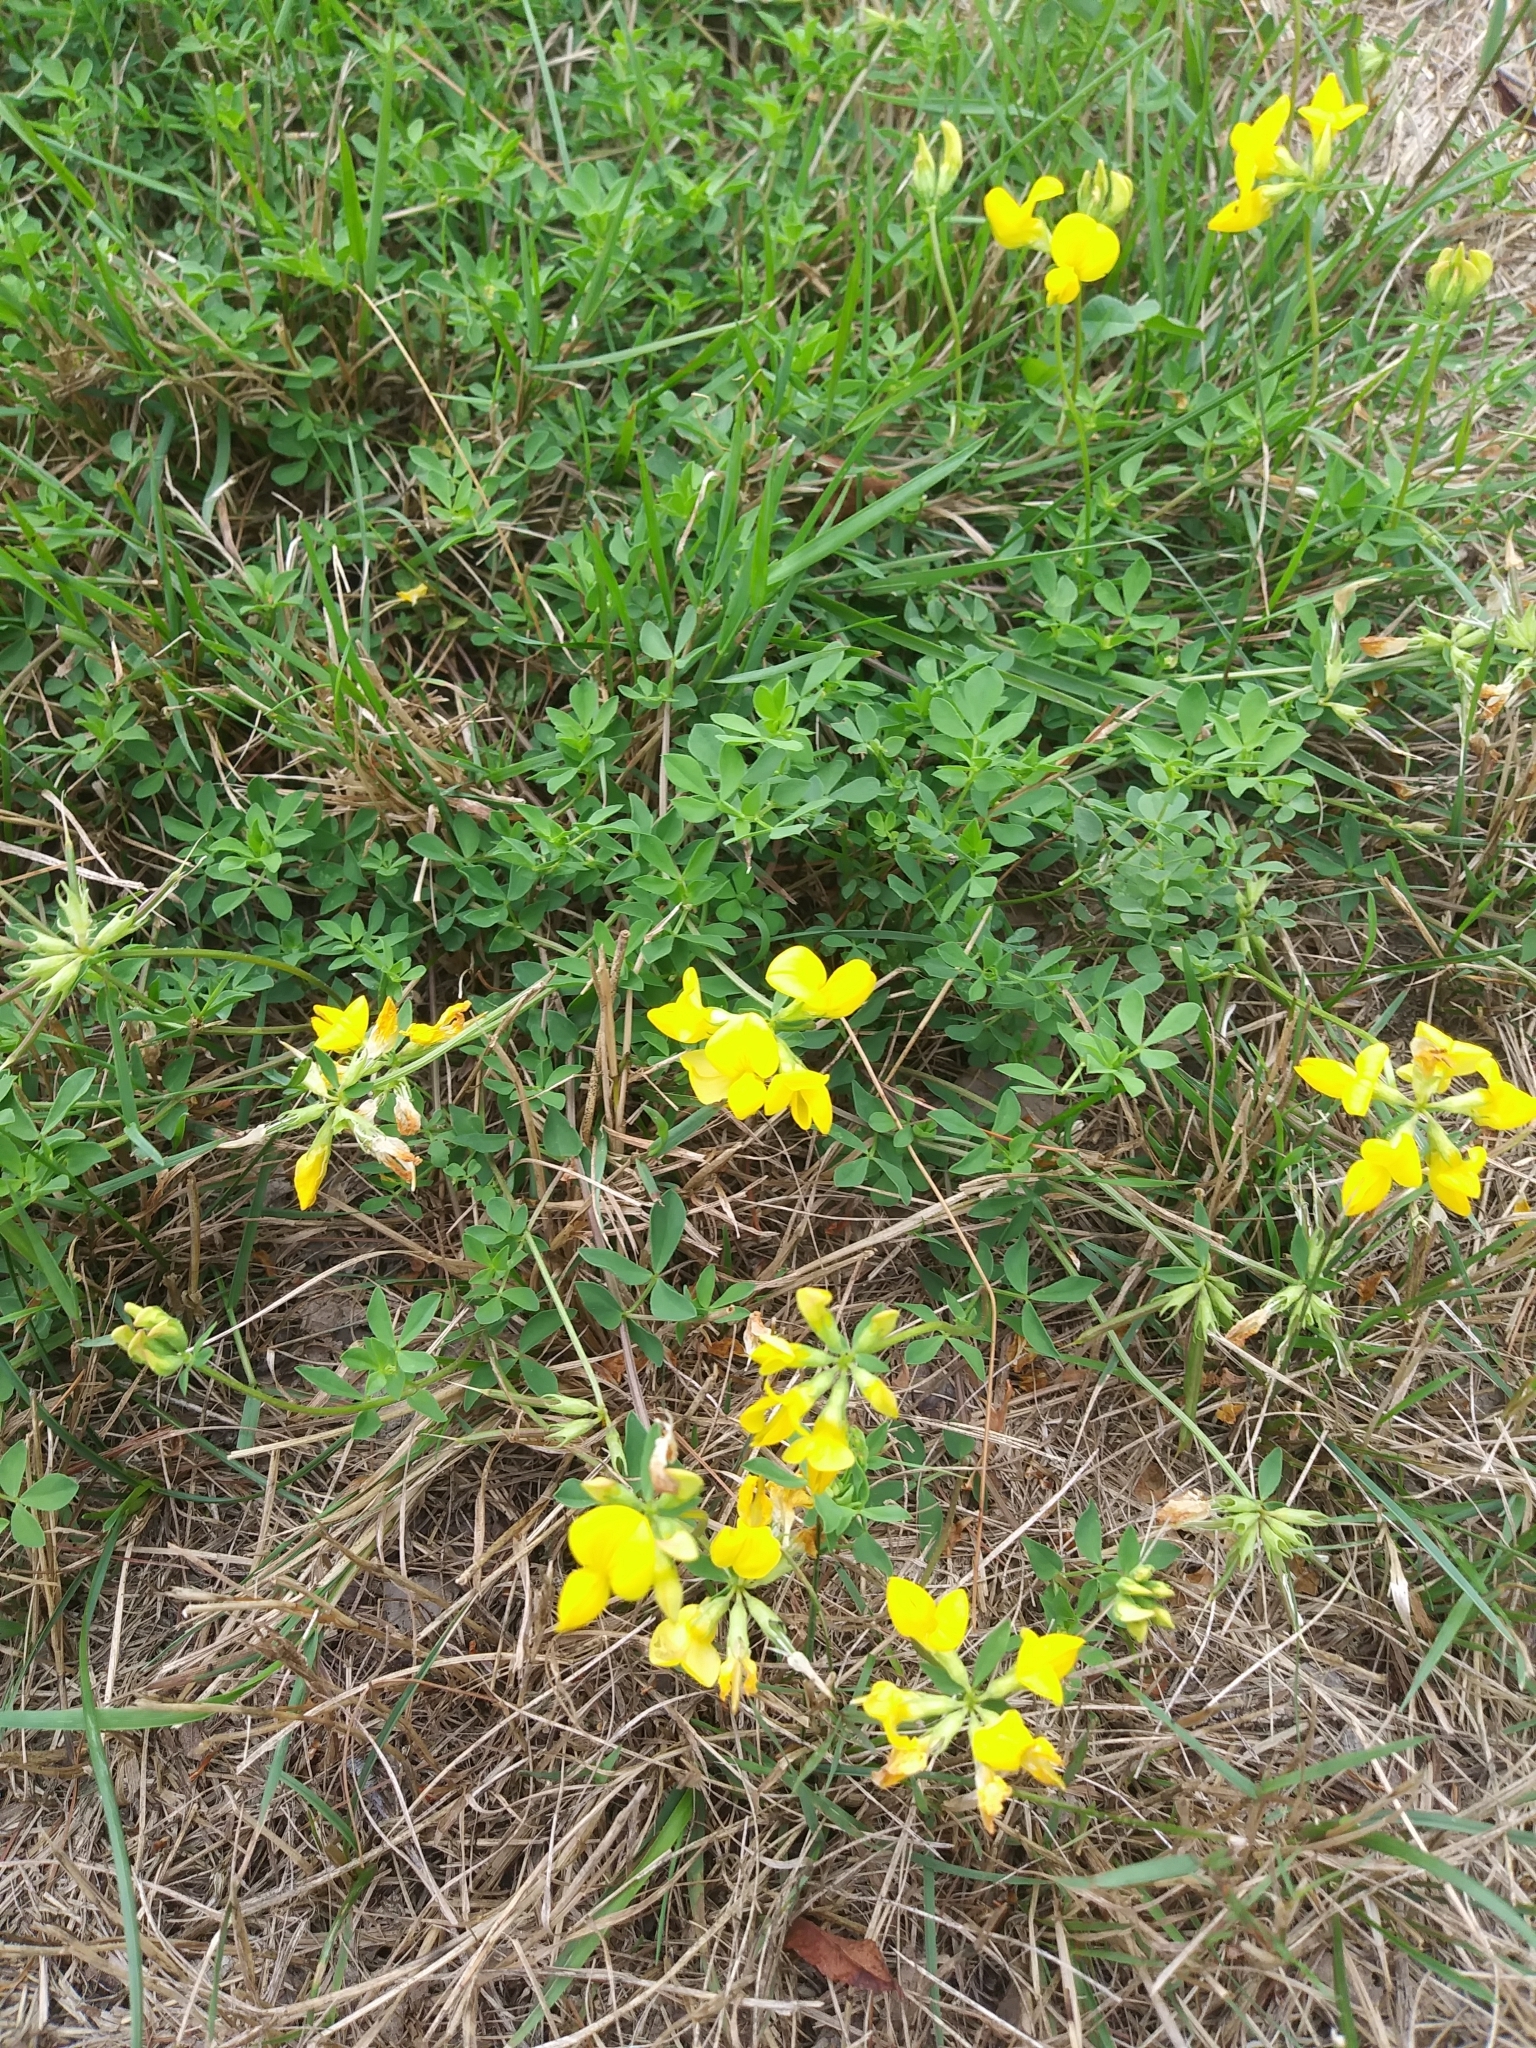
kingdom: Plantae
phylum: Tracheophyta
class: Magnoliopsida
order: Fabales
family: Fabaceae
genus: Lotus
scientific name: Lotus corniculatus
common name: Common bird's-foot-trefoil
